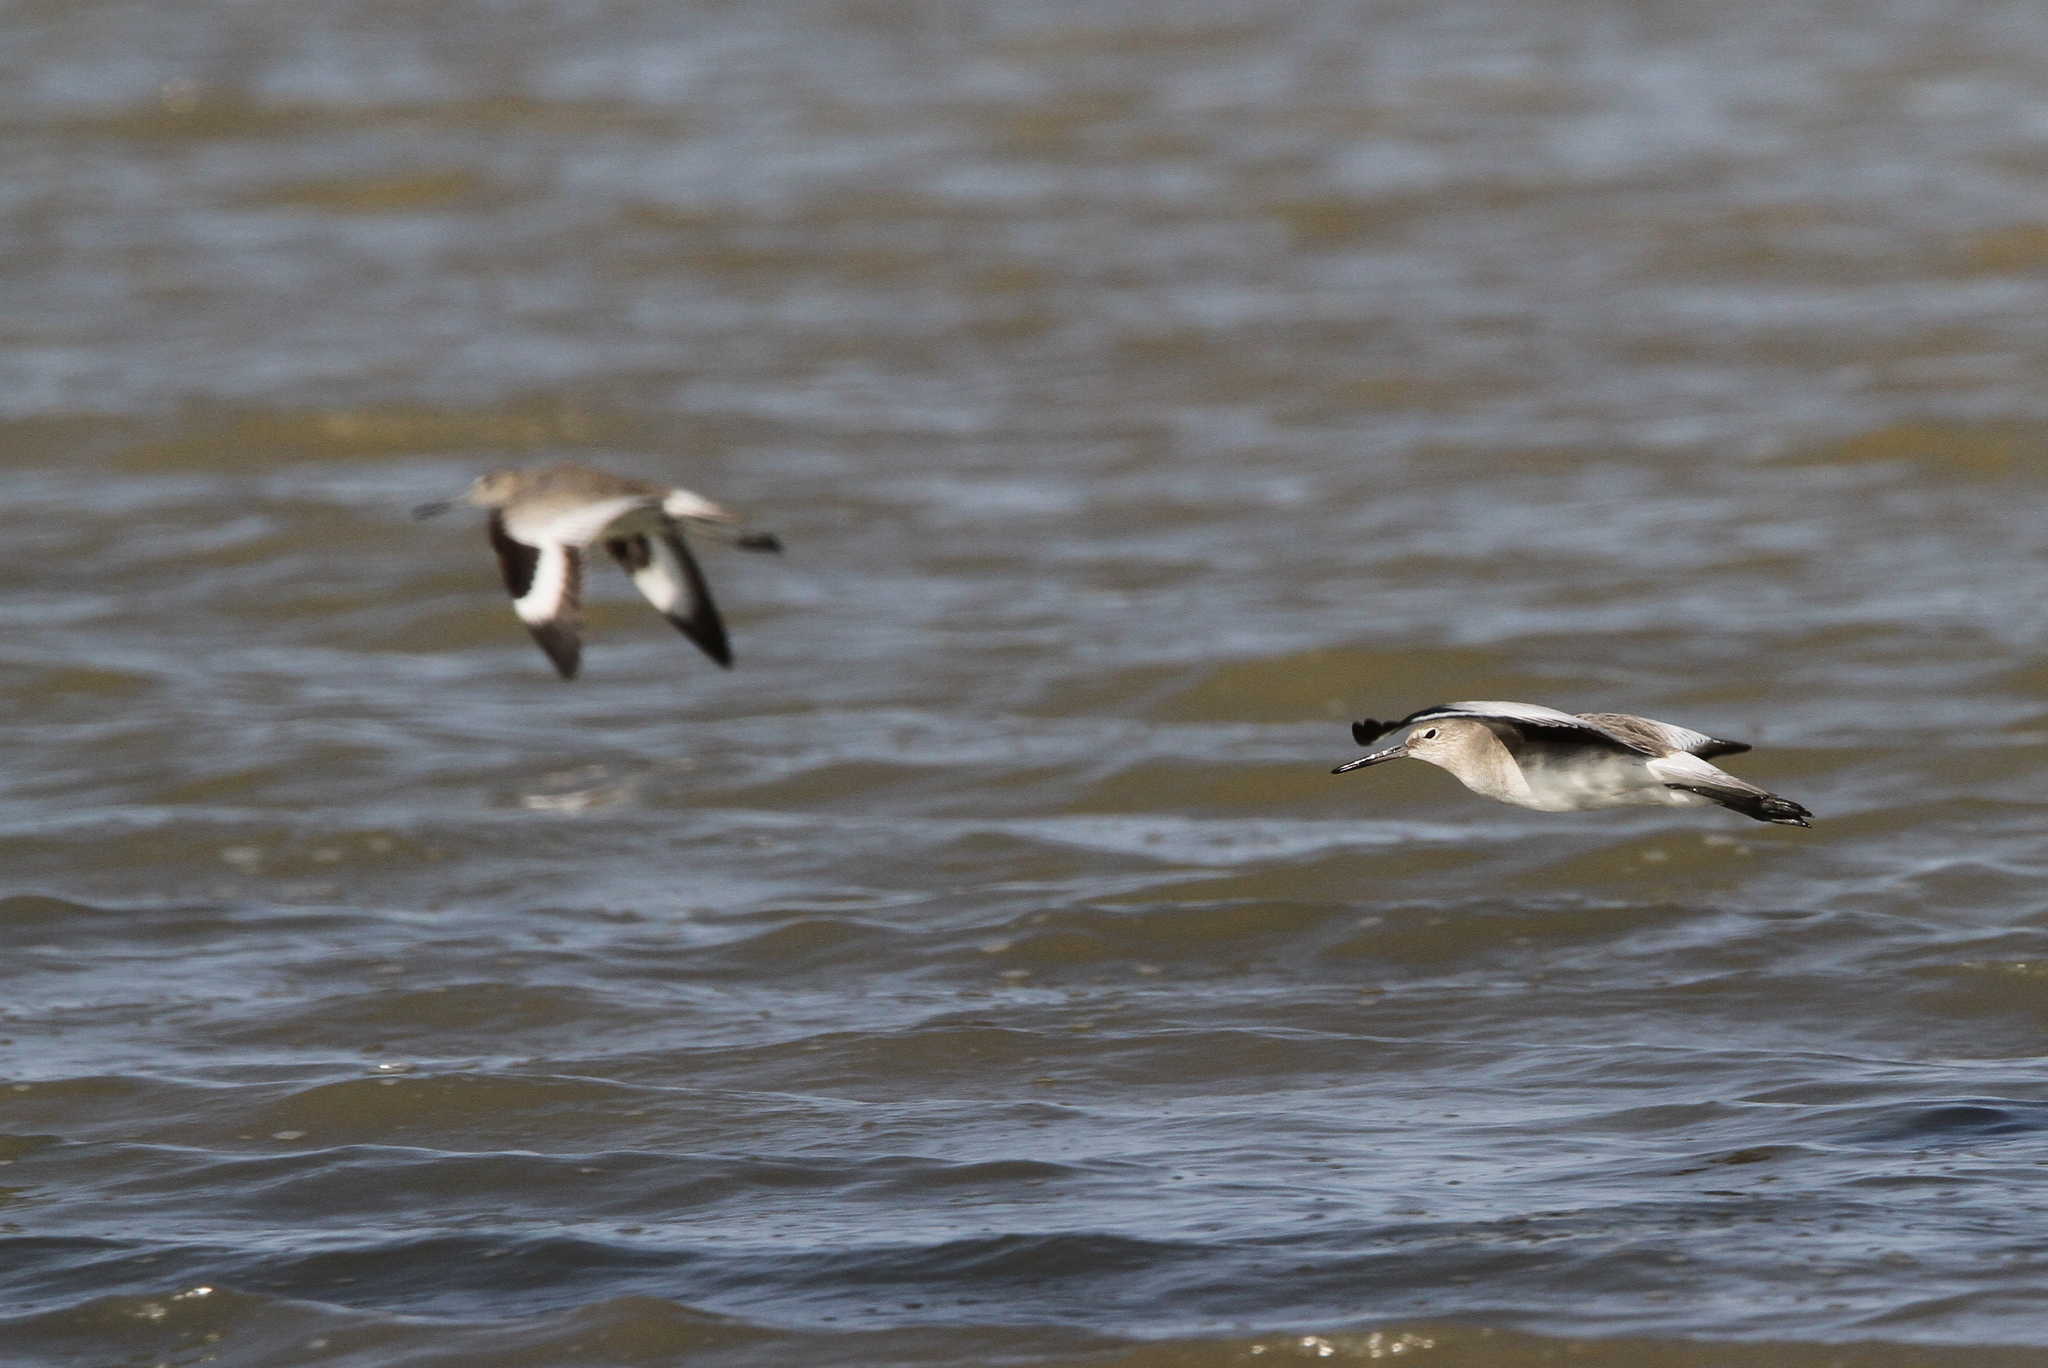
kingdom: Animalia
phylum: Chordata
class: Aves
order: Charadriiformes
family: Scolopacidae
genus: Tringa
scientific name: Tringa semipalmata
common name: Willet
